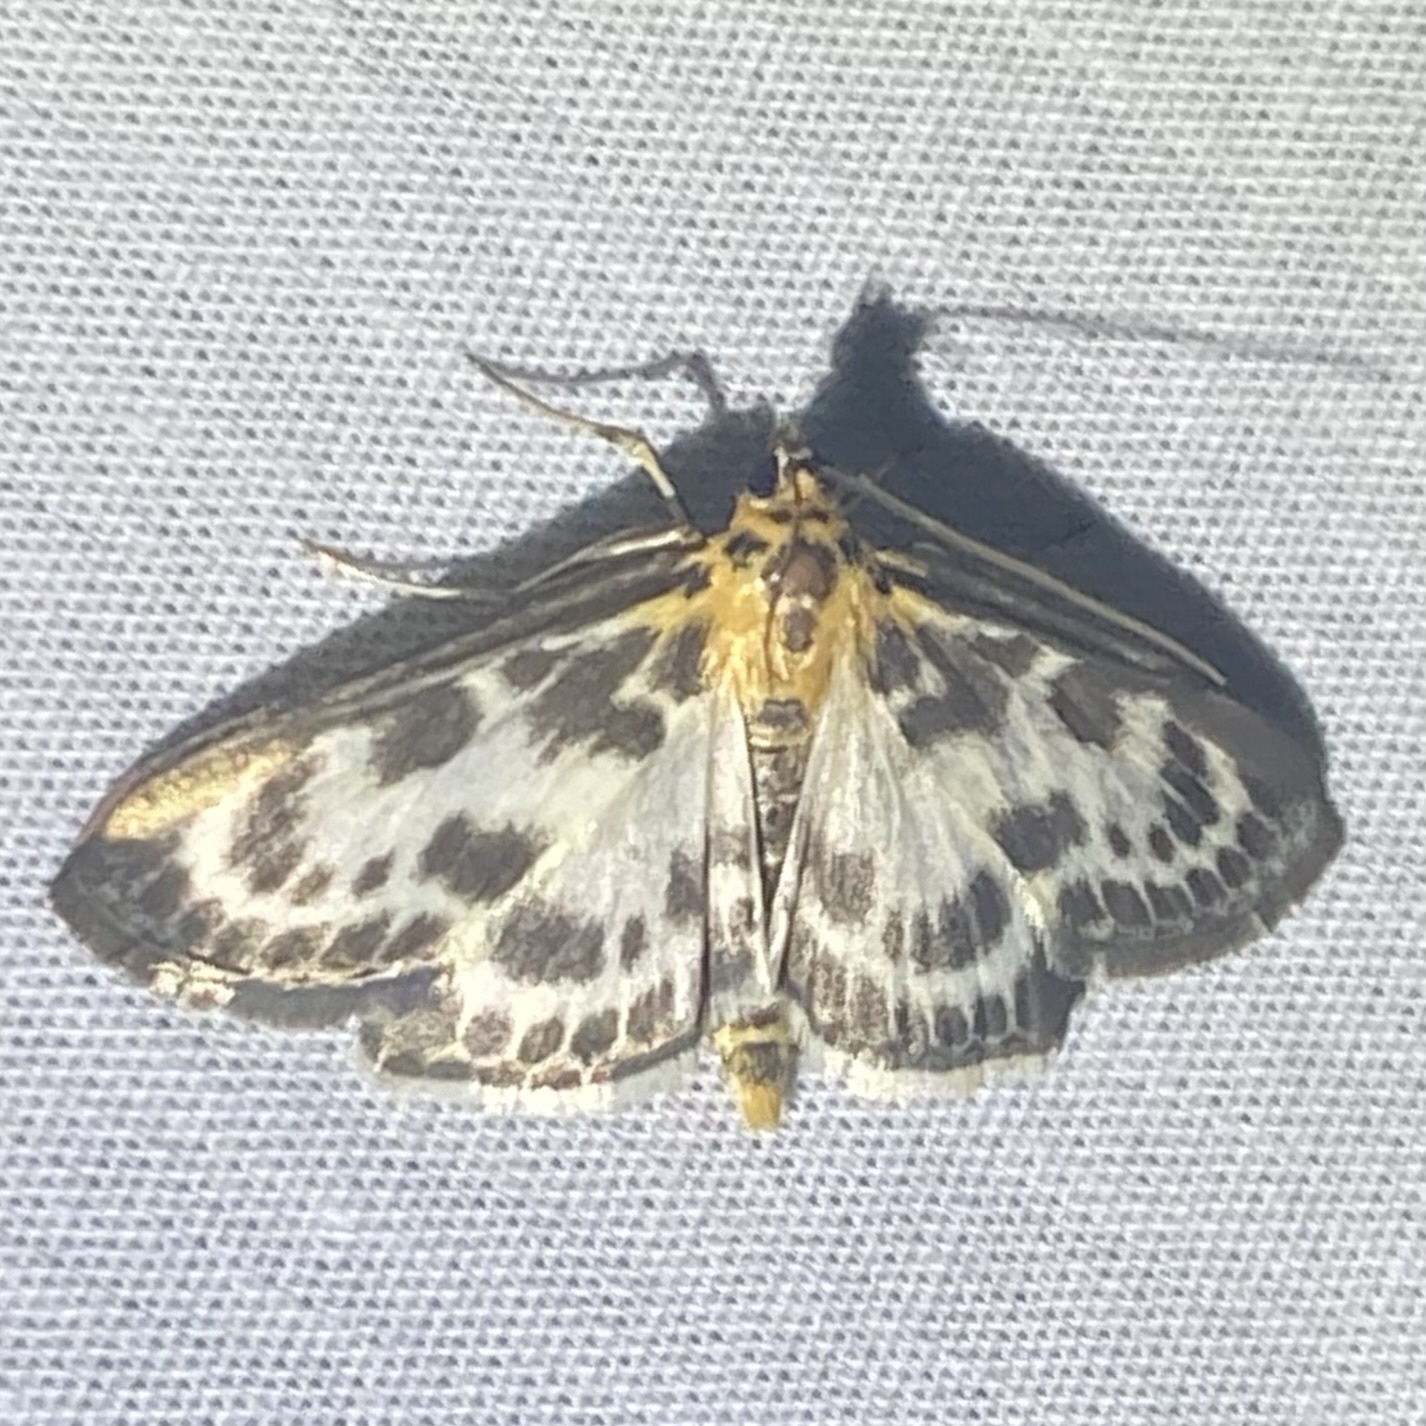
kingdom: Animalia
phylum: Arthropoda
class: Insecta
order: Lepidoptera
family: Crambidae
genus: Anania
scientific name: Anania hortulata
